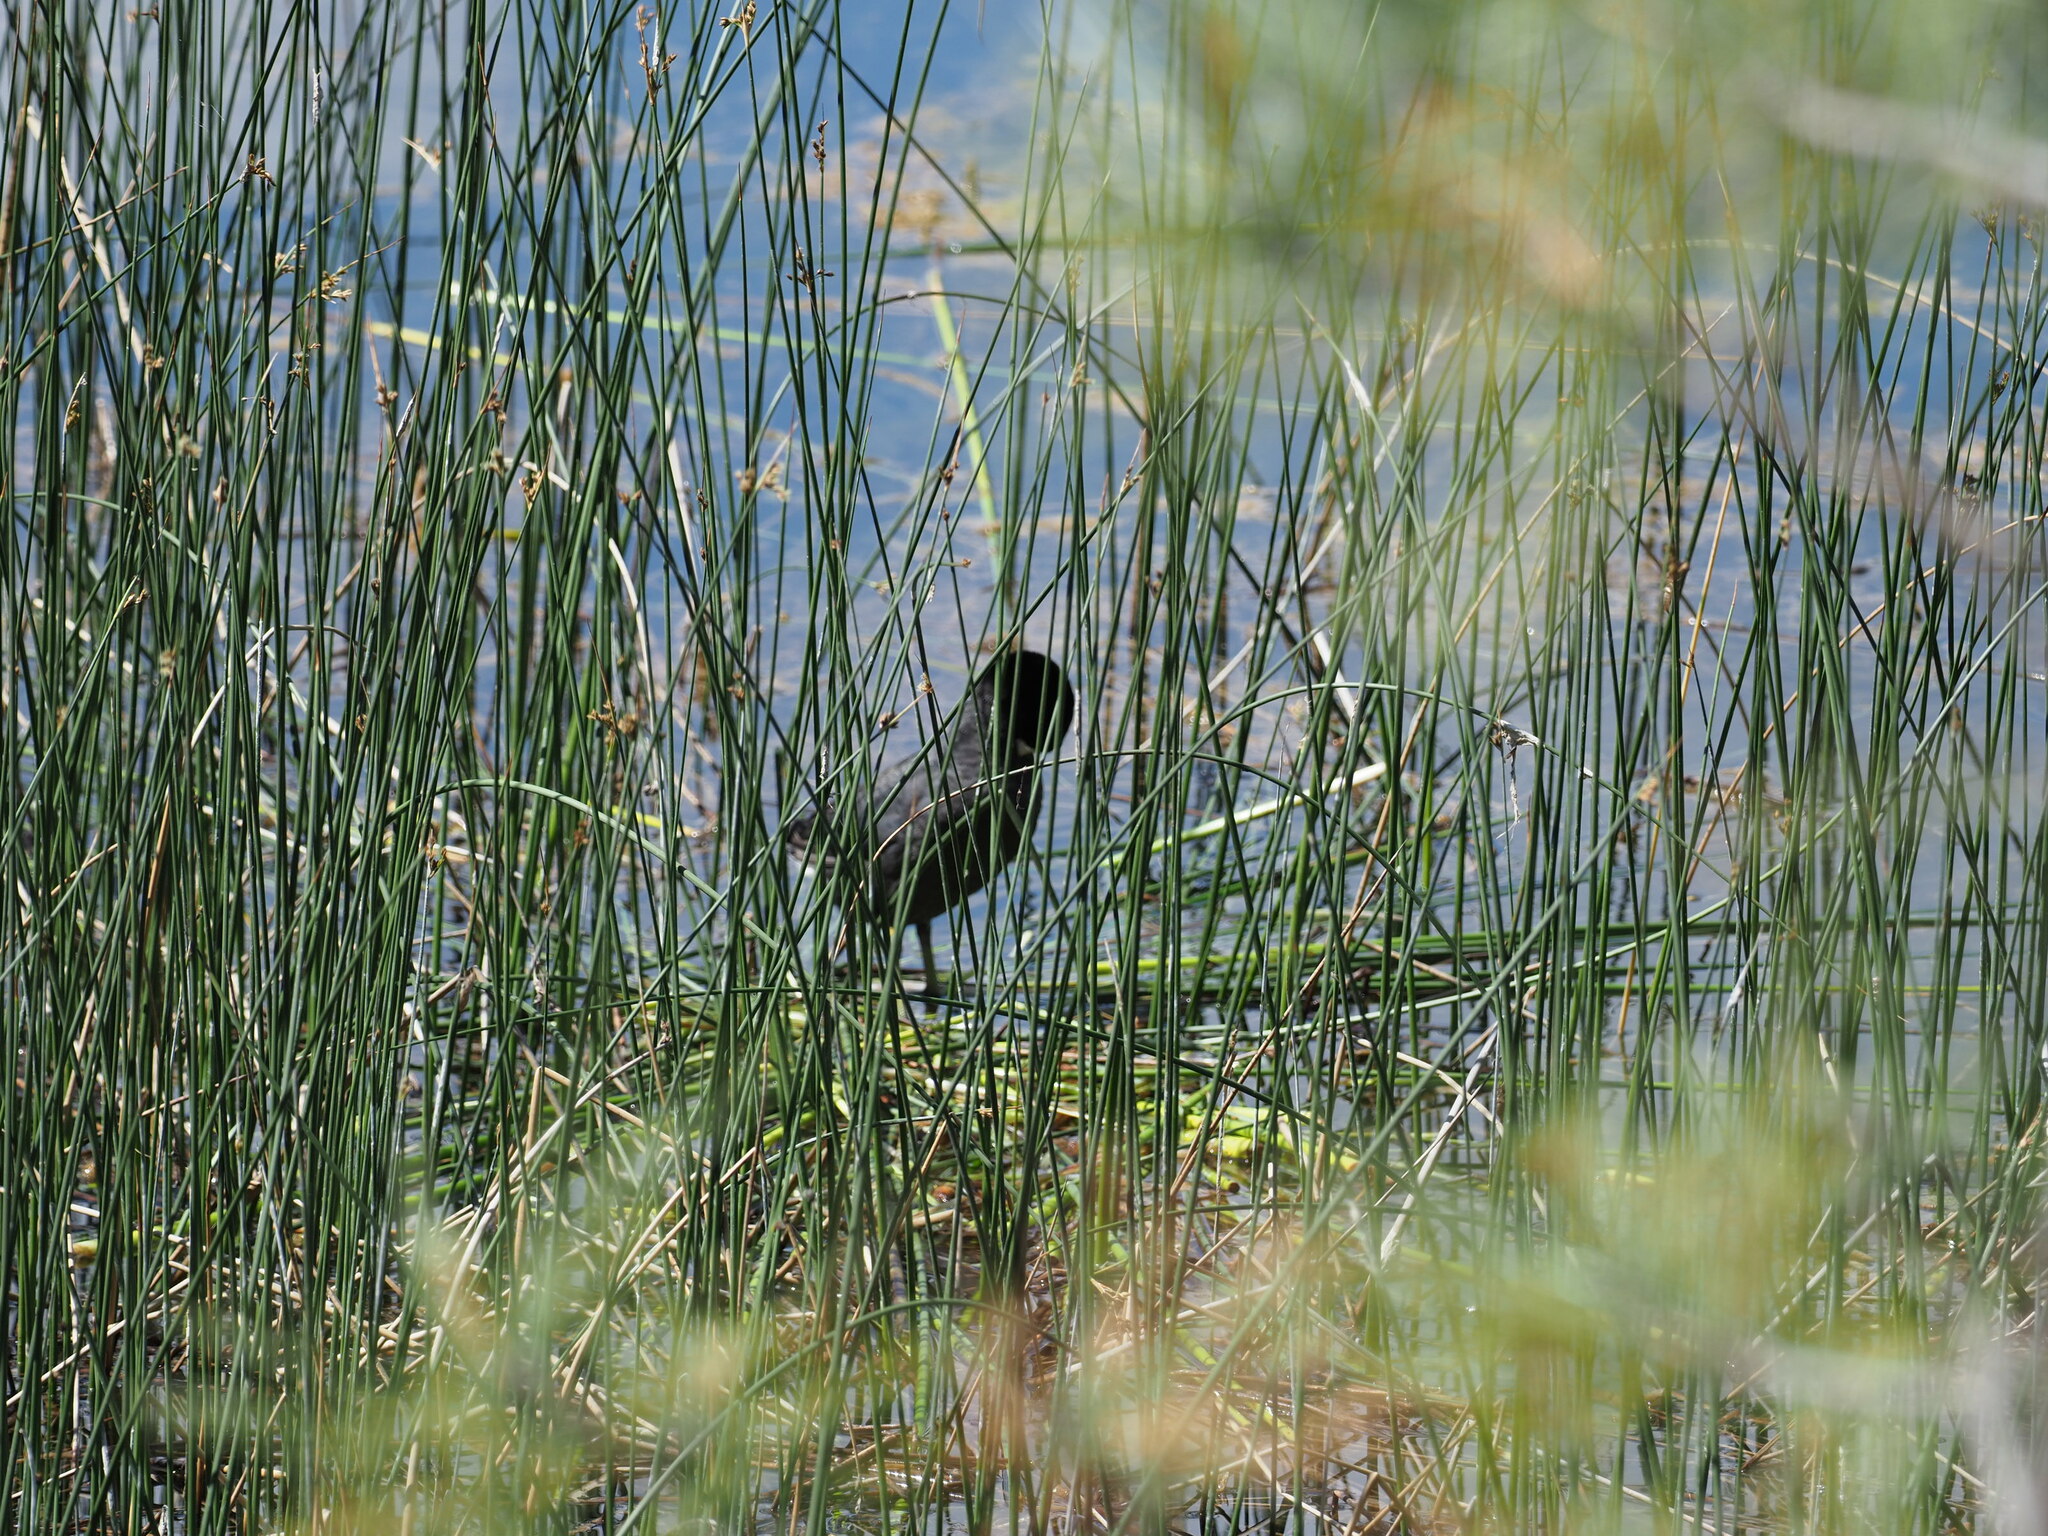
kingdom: Animalia
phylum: Chordata
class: Aves
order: Gruiformes
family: Rallidae
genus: Fulica
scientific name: Fulica americana
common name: American coot
